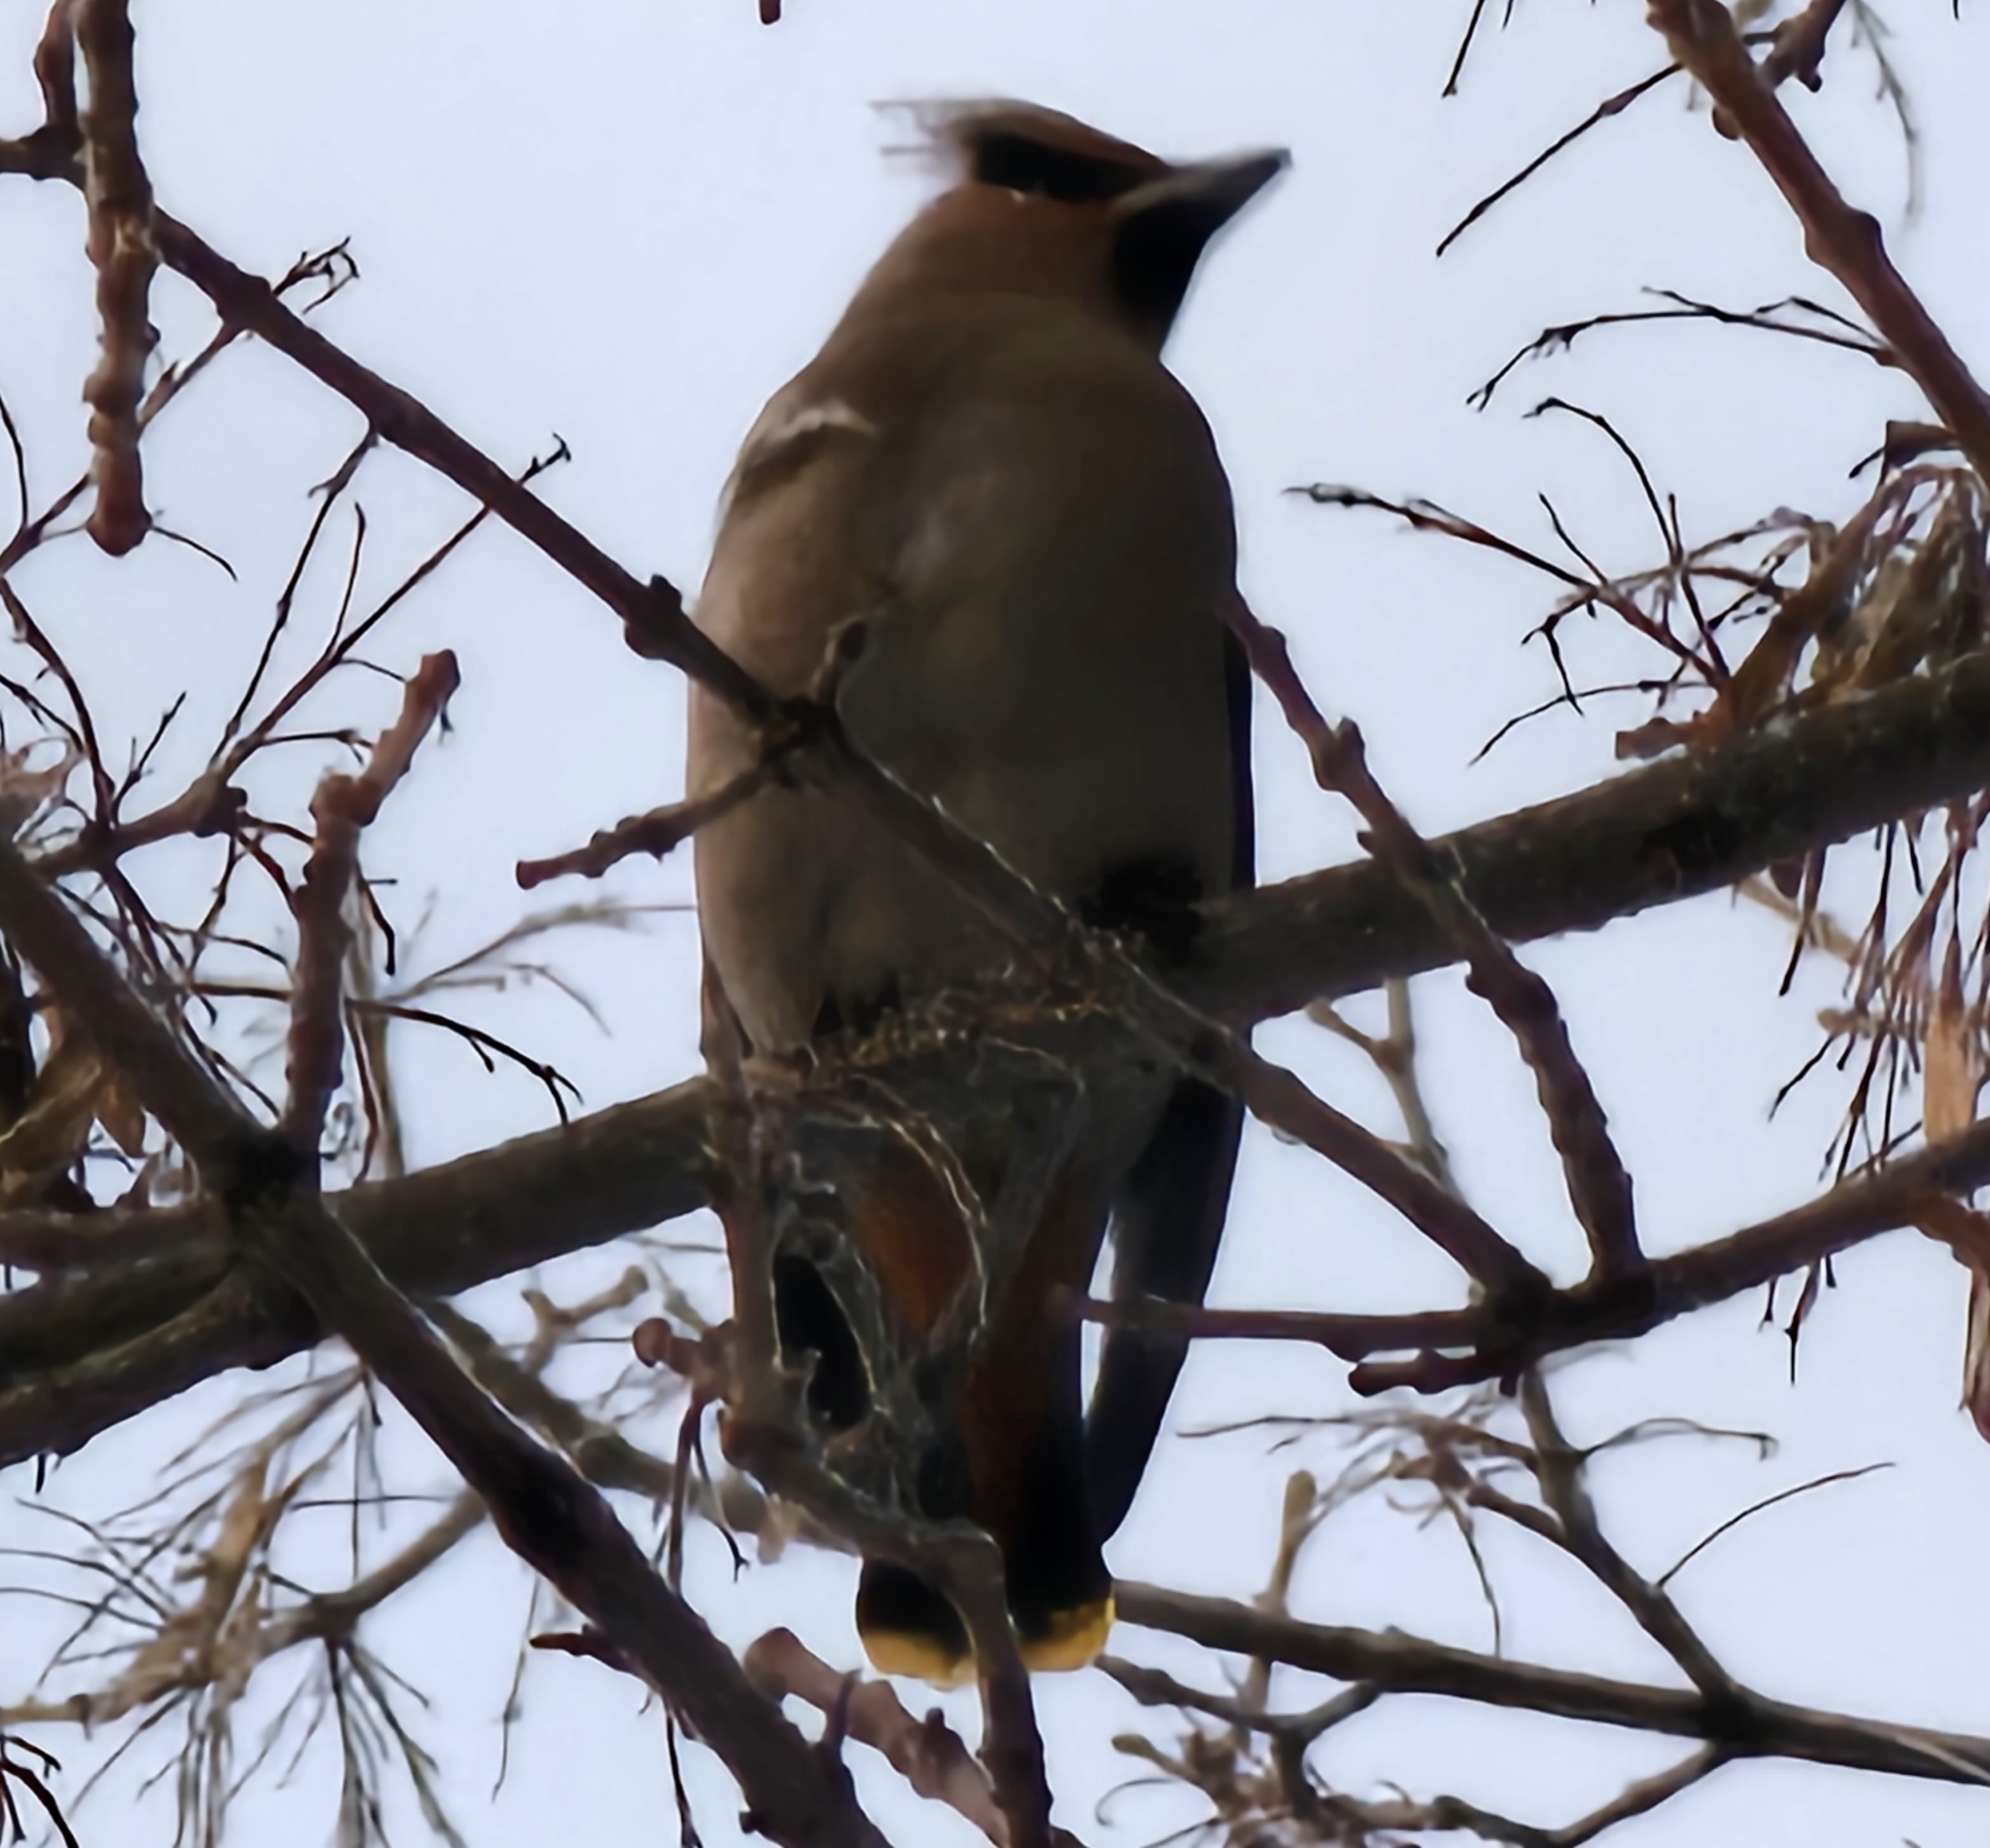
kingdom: Animalia
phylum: Chordata
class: Aves
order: Passeriformes
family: Bombycillidae
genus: Bombycilla
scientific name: Bombycilla garrulus
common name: Bohemian waxwing
